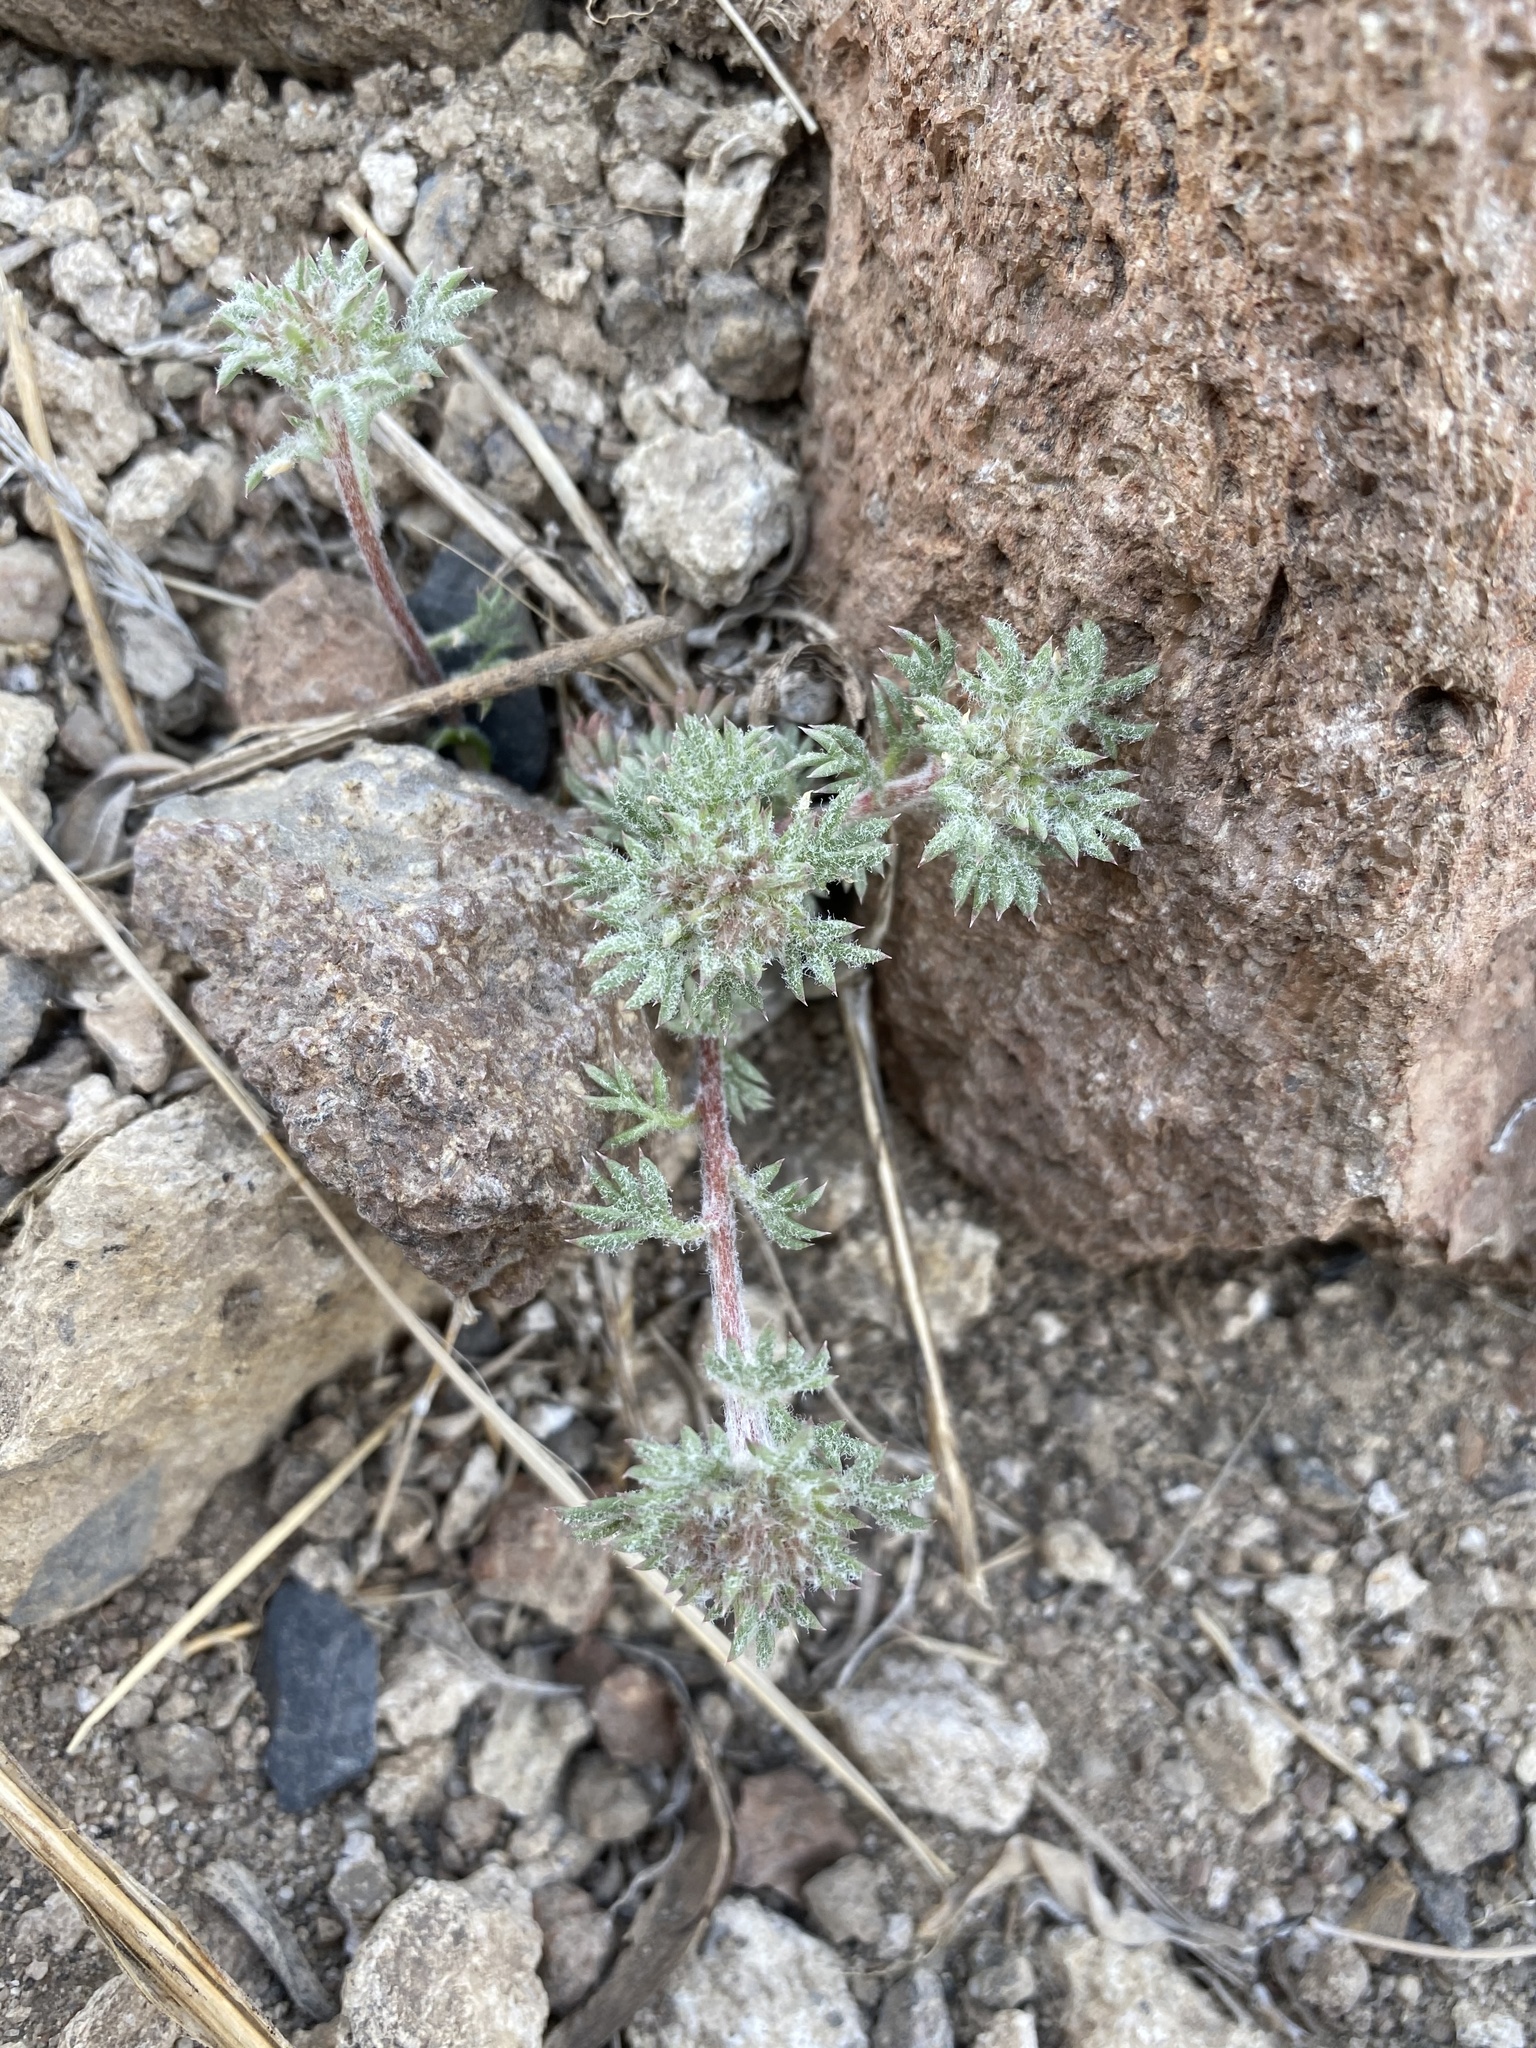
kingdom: Plantae
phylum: Tracheophyta
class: Magnoliopsida
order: Ericales
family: Polemoniaceae
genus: Ipomopsis
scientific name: Ipomopsis congesta
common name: Ball-head gilia
